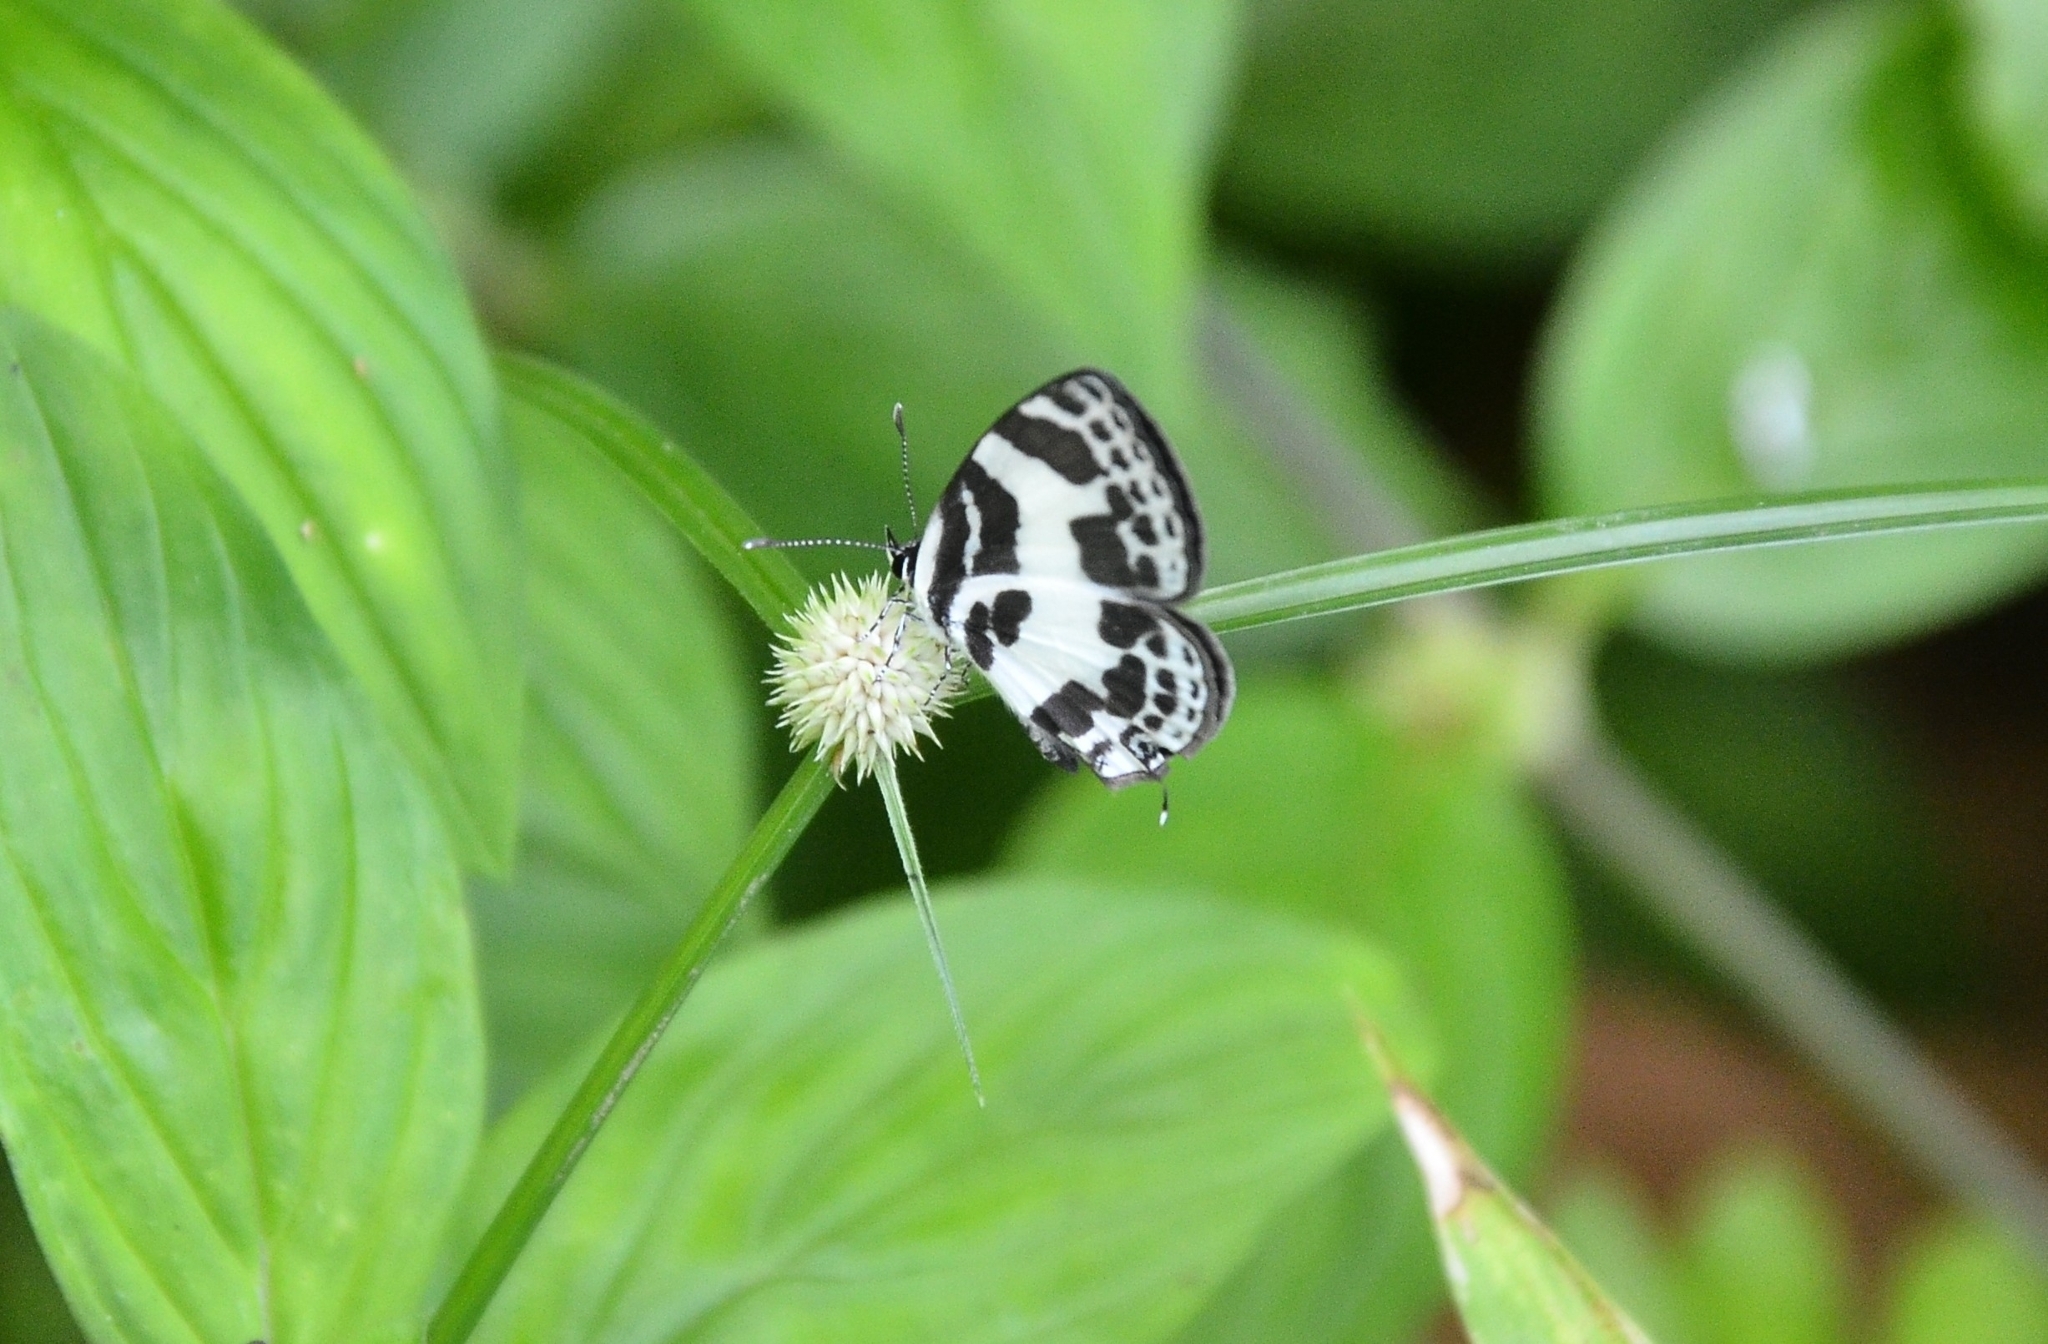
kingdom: Animalia
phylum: Arthropoda
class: Insecta
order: Lepidoptera
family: Lycaenidae
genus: Discolampa
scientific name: Discolampa ethion
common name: Banded blue pierrot
